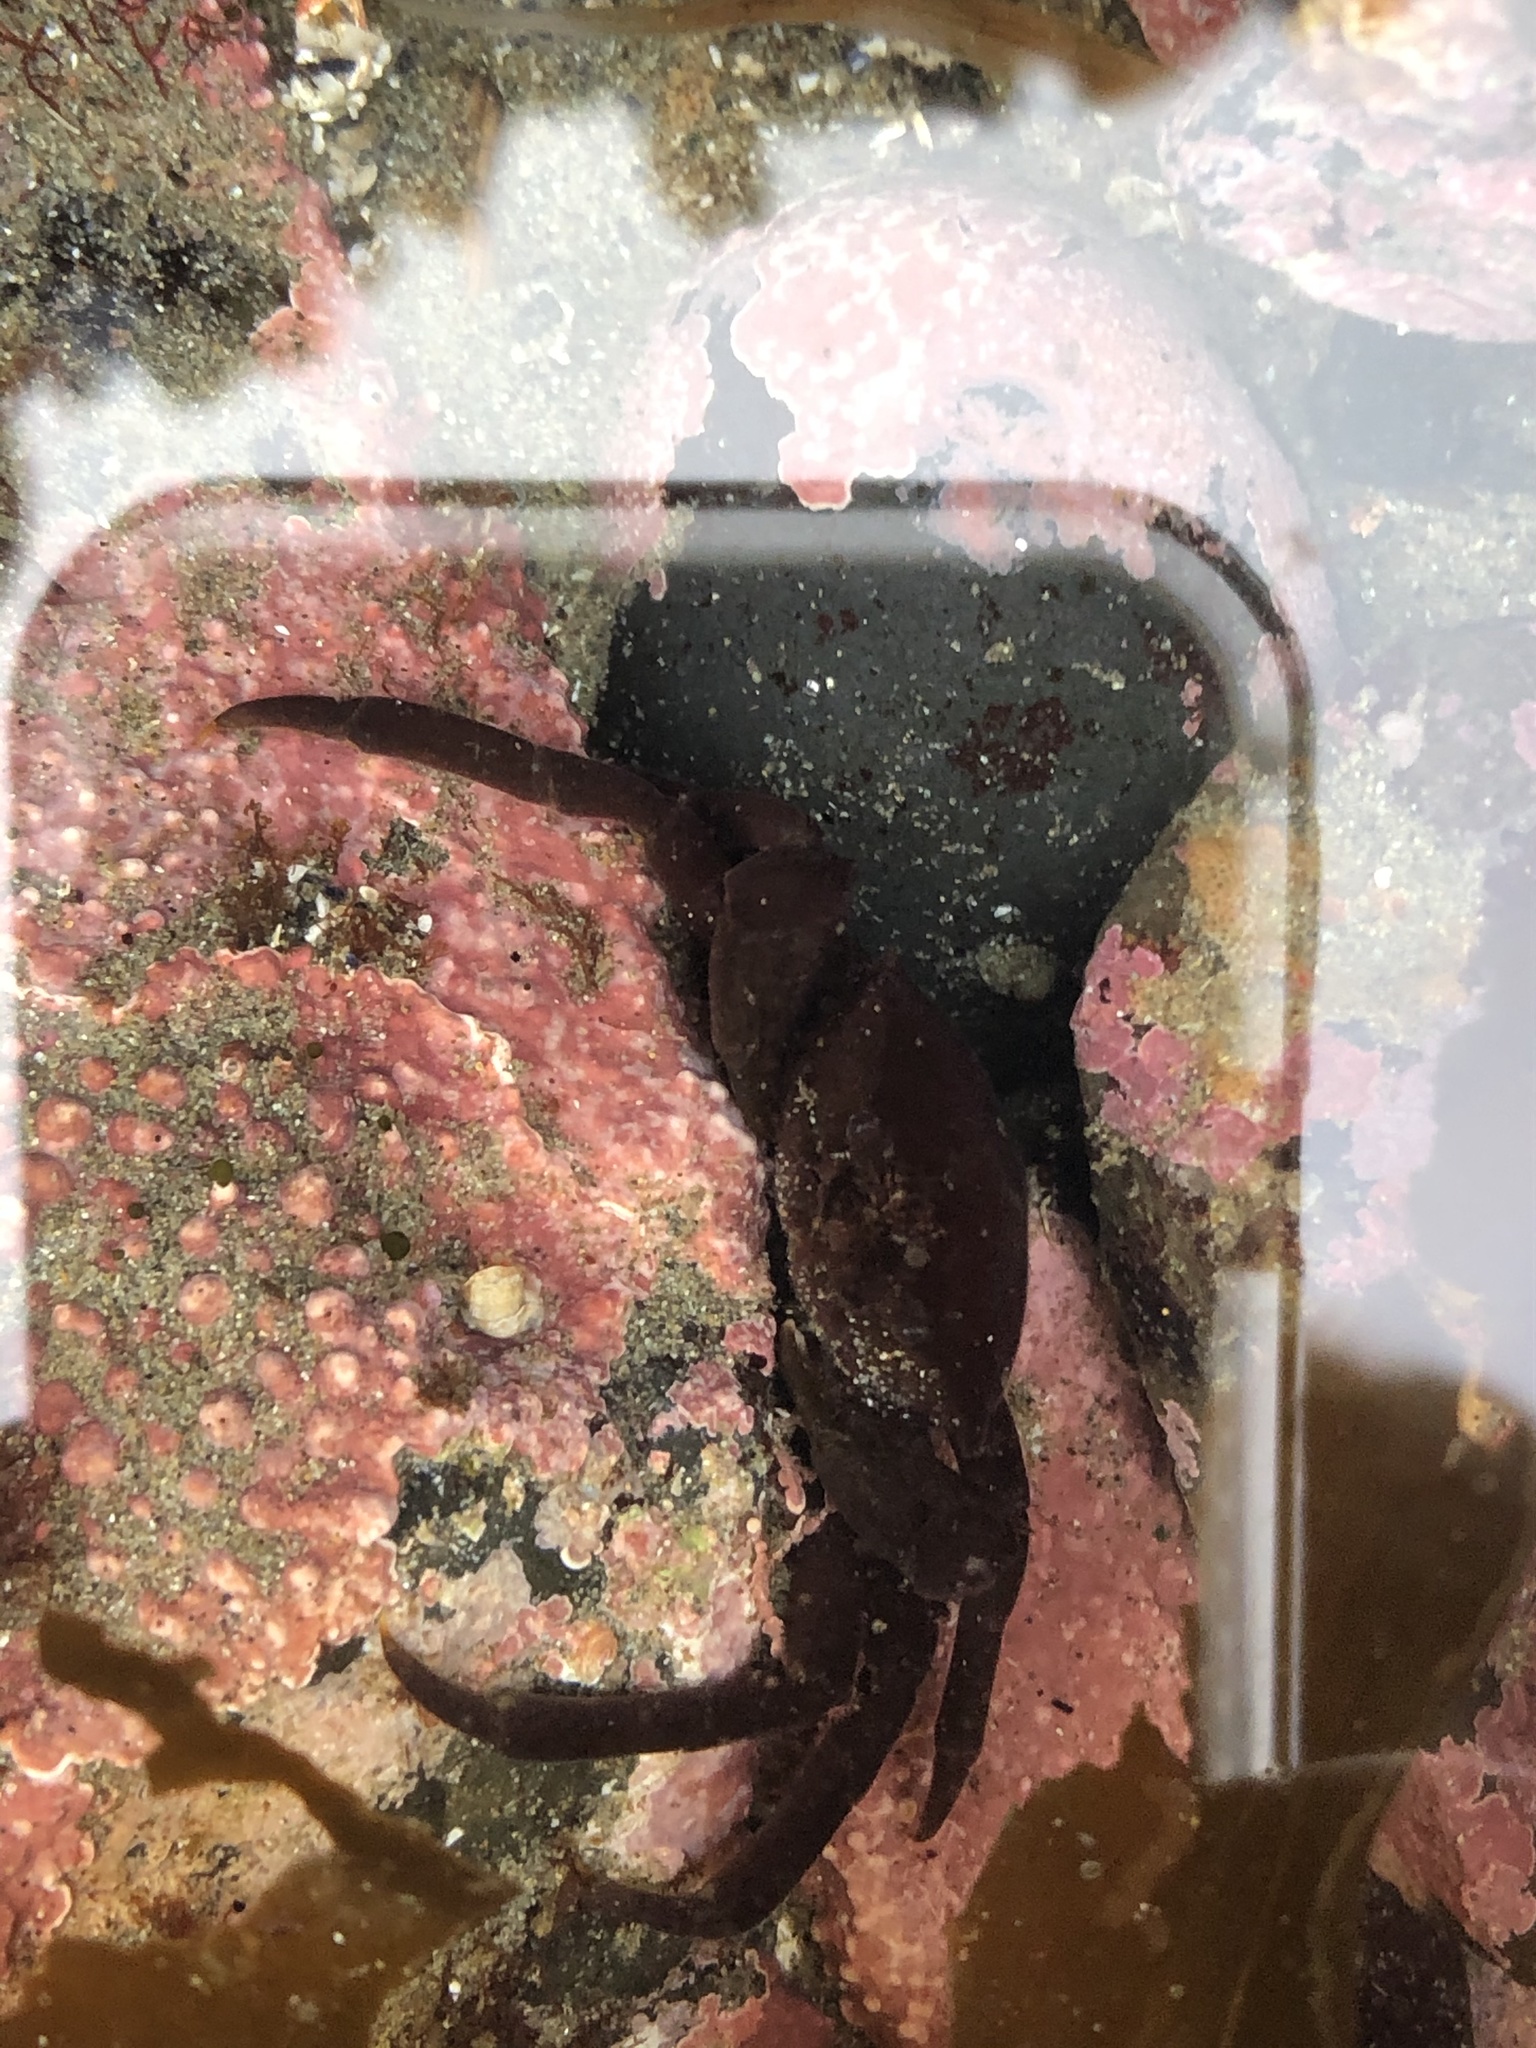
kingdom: Animalia
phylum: Arthropoda
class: Malacostraca
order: Decapoda
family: Epialtidae
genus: Pugettia
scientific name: Pugettia producta
